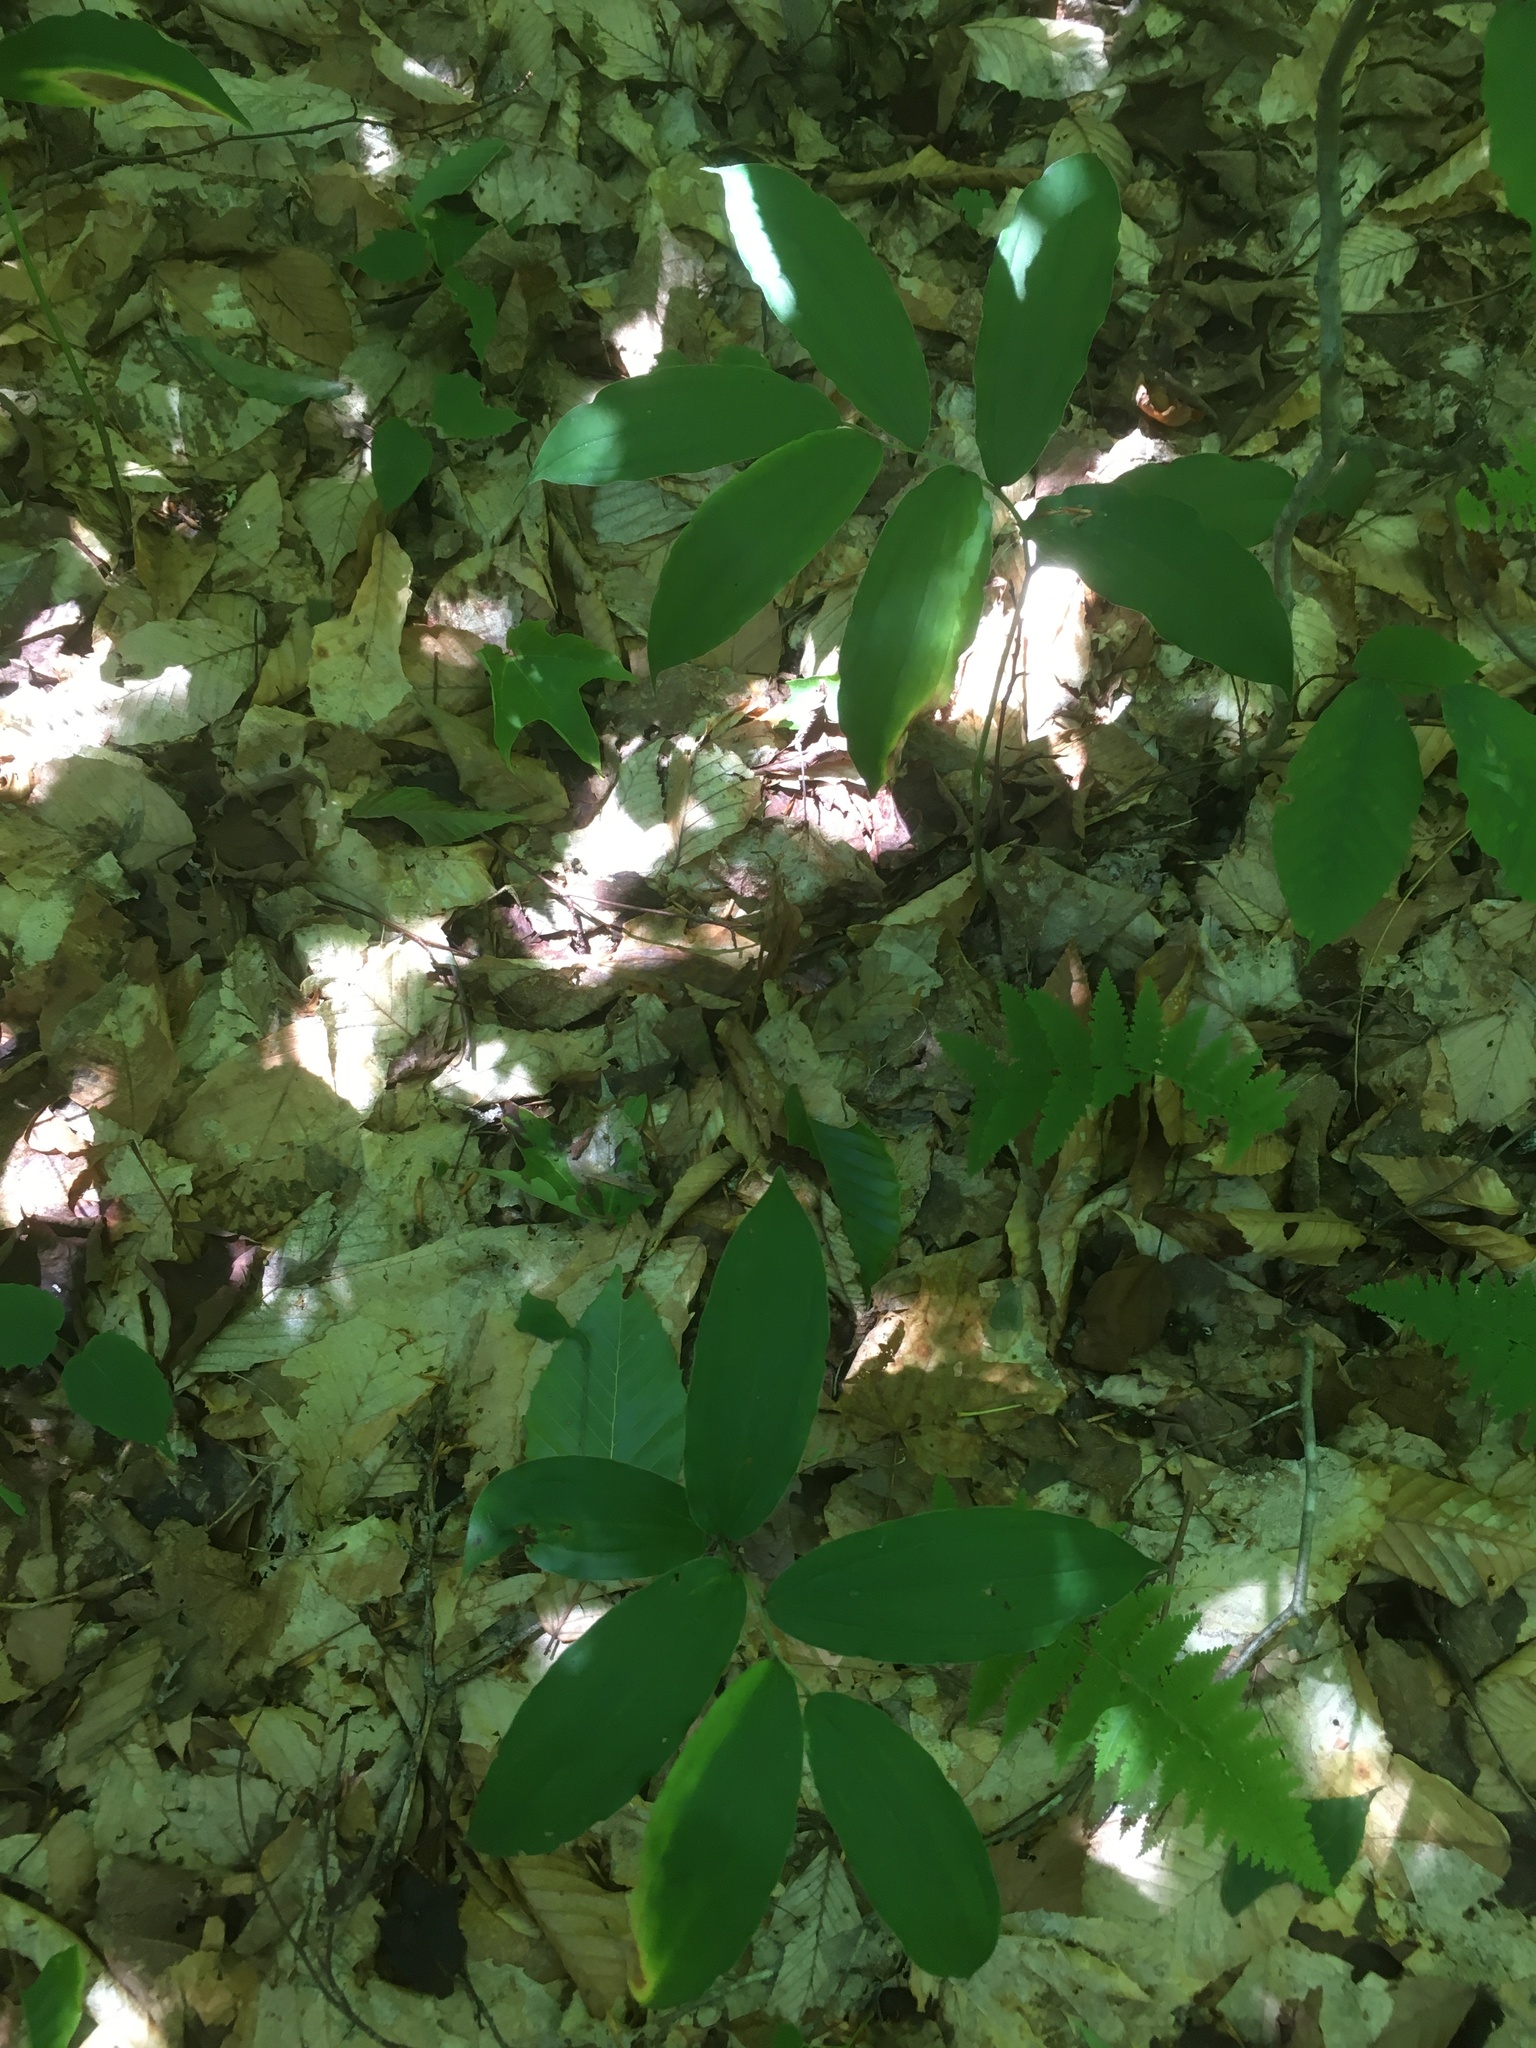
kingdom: Plantae
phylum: Tracheophyta
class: Liliopsida
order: Asparagales
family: Asparagaceae
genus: Maianthemum
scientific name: Maianthemum racemosum
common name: False spikenard
